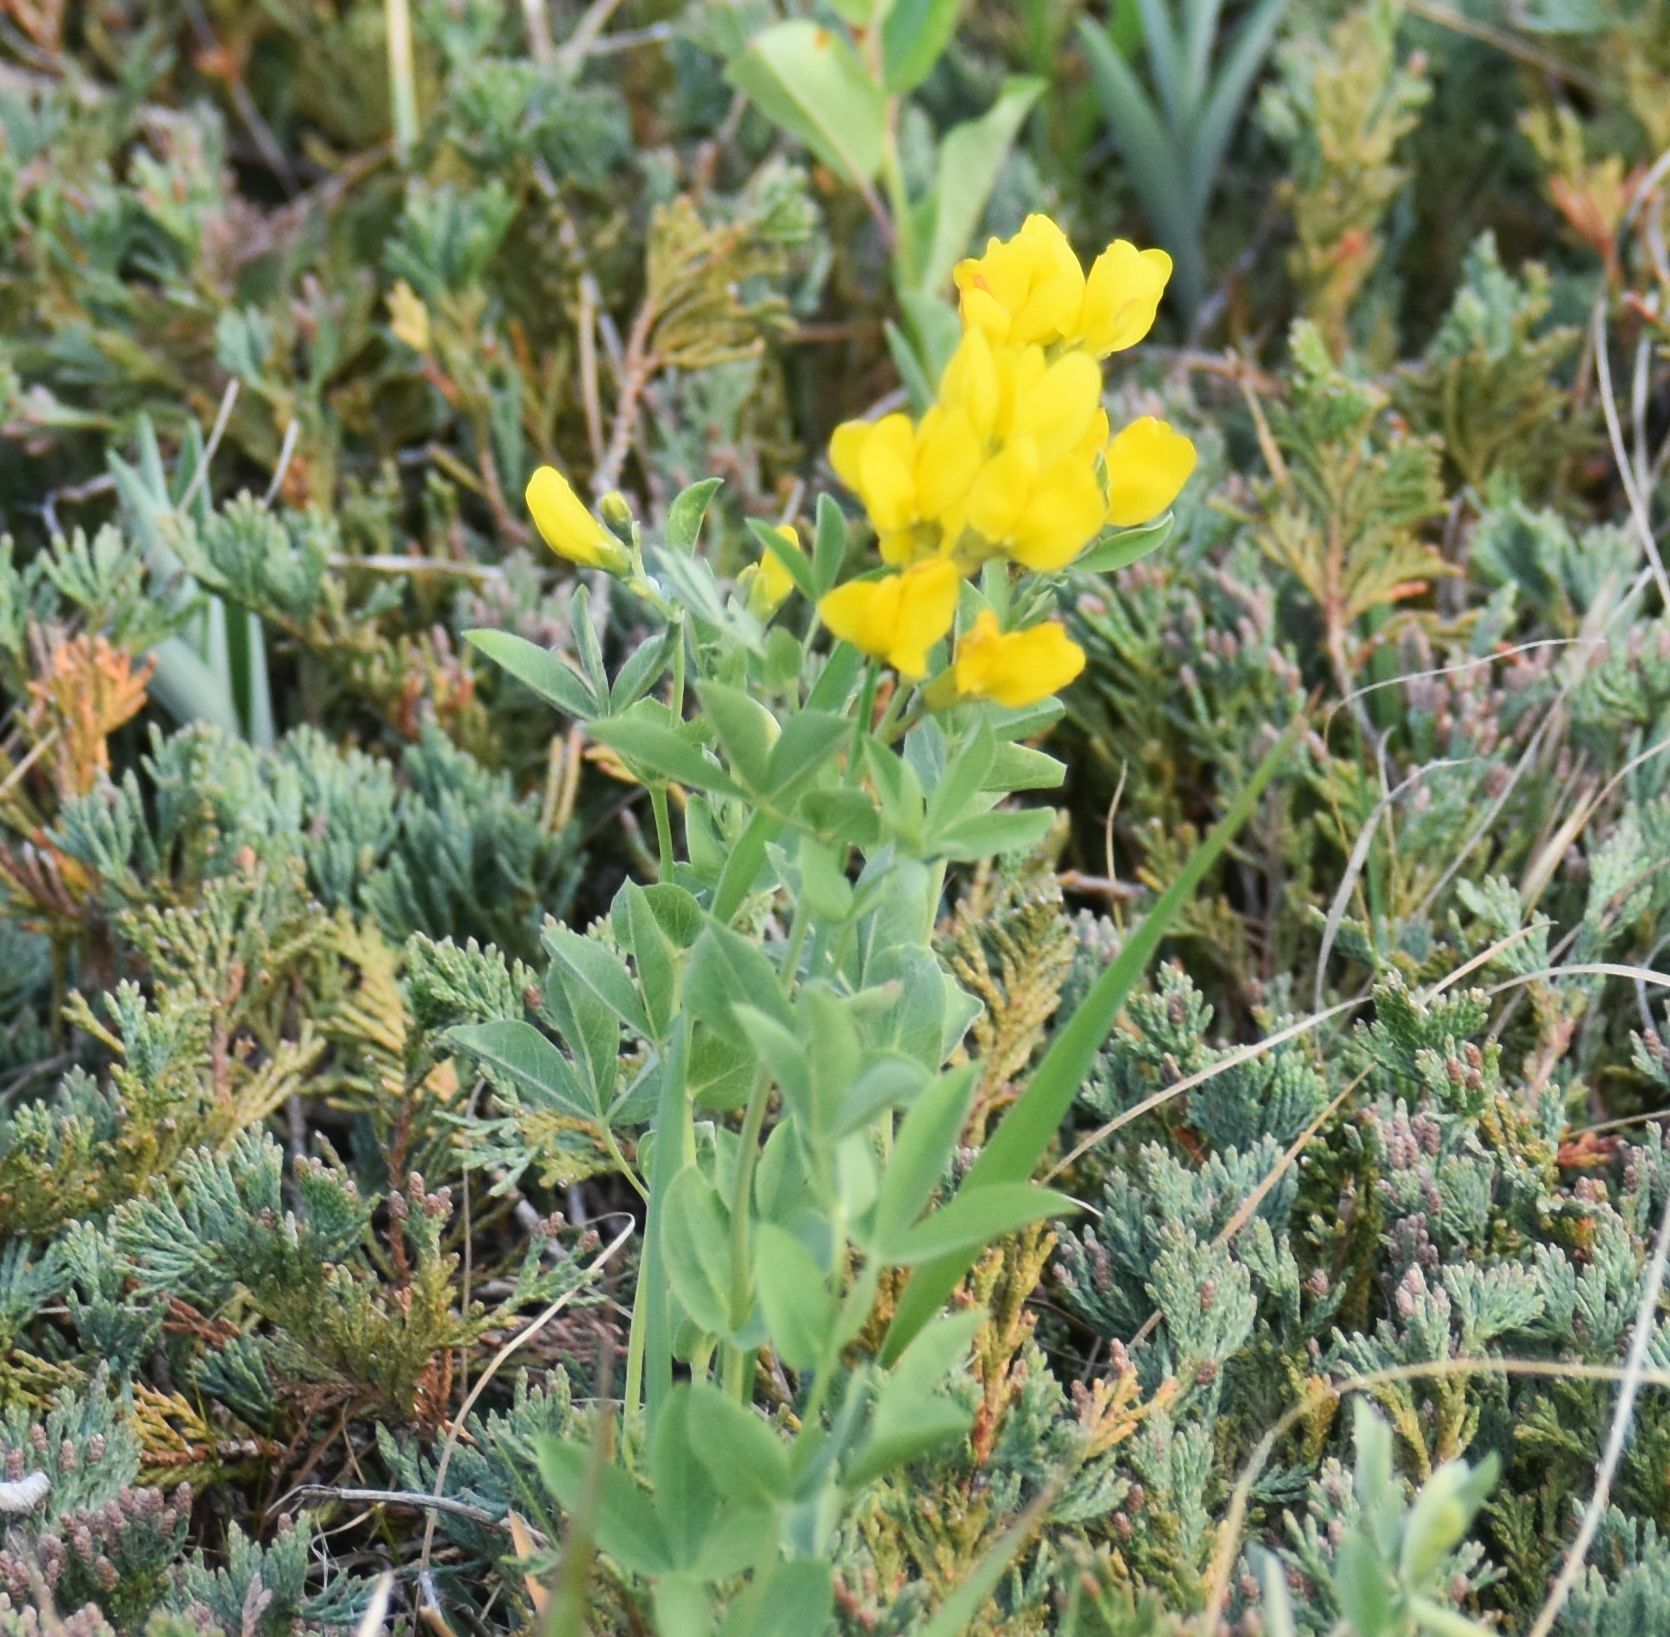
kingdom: Plantae
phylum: Tracheophyta
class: Magnoliopsida
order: Fabales
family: Fabaceae
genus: Thermopsis
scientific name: Thermopsis rhombifolia
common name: Circle-pod-pea
